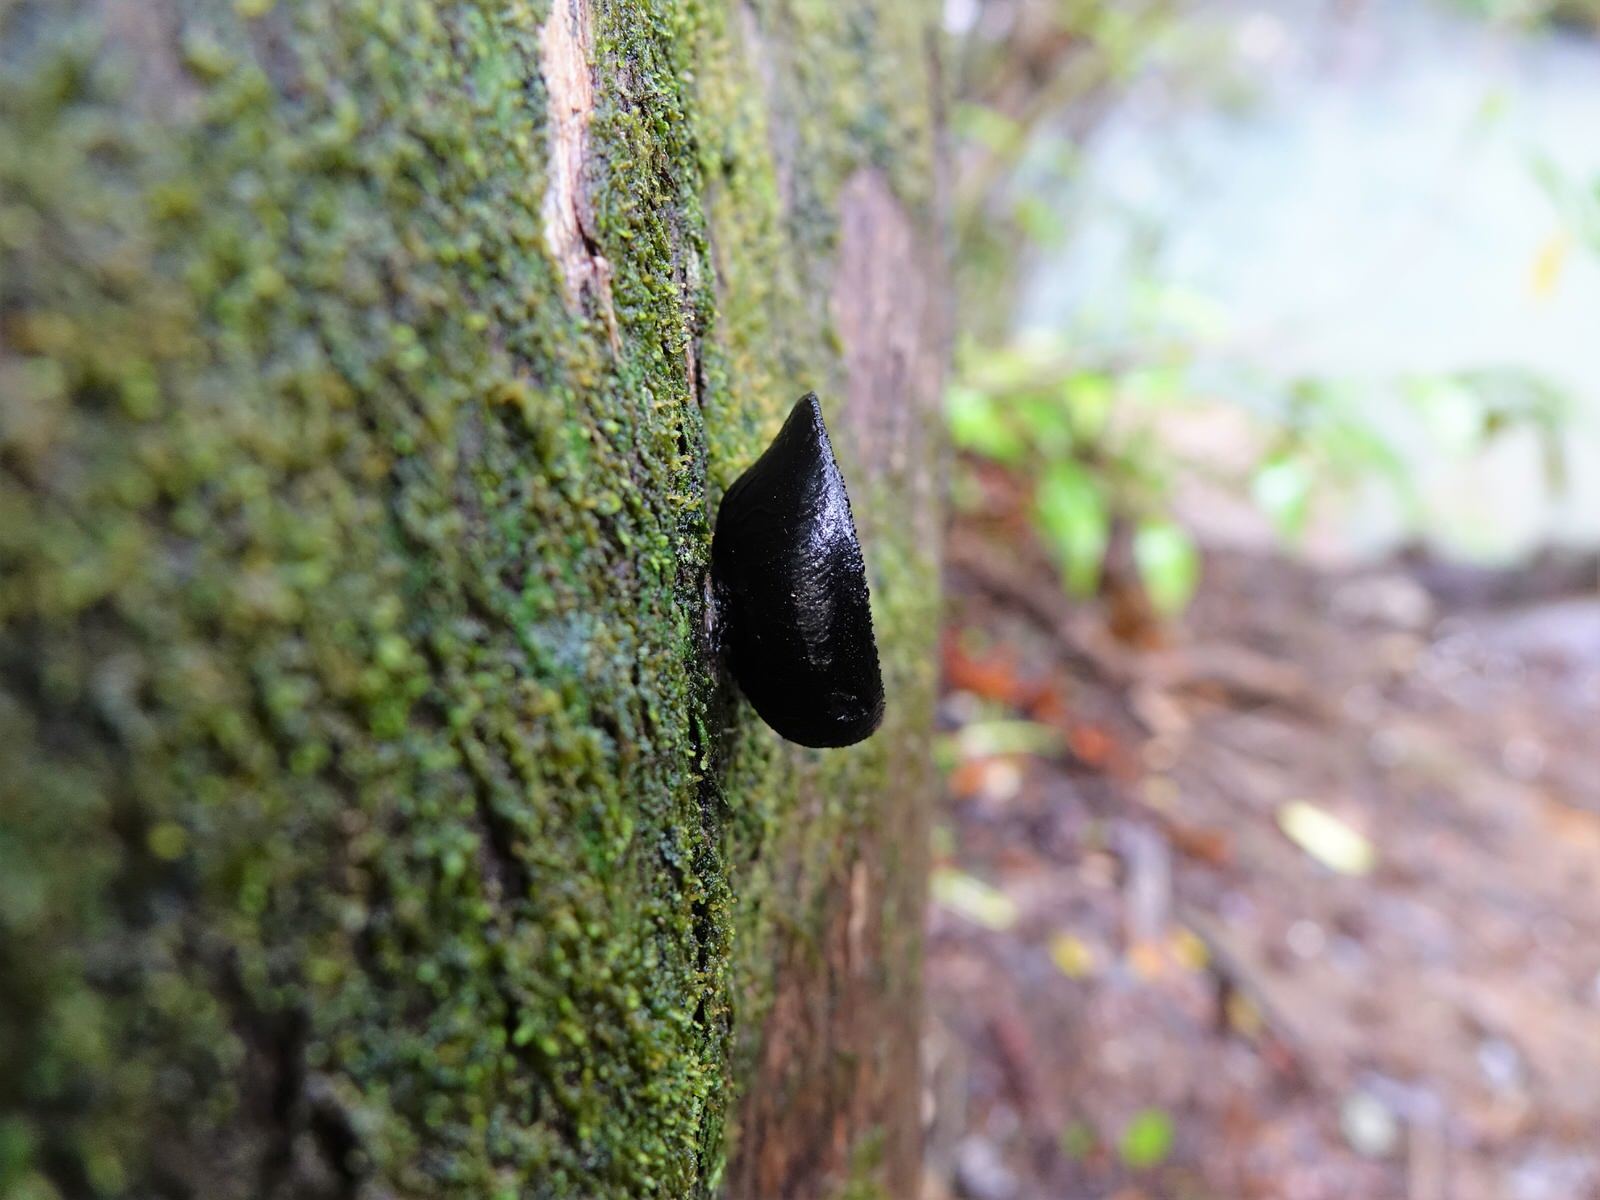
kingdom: Fungi
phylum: Ascomycota
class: Pezizomycetes
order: Pezizales
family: Sarcosomataceae
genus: Plectania
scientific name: Plectania campylospora
